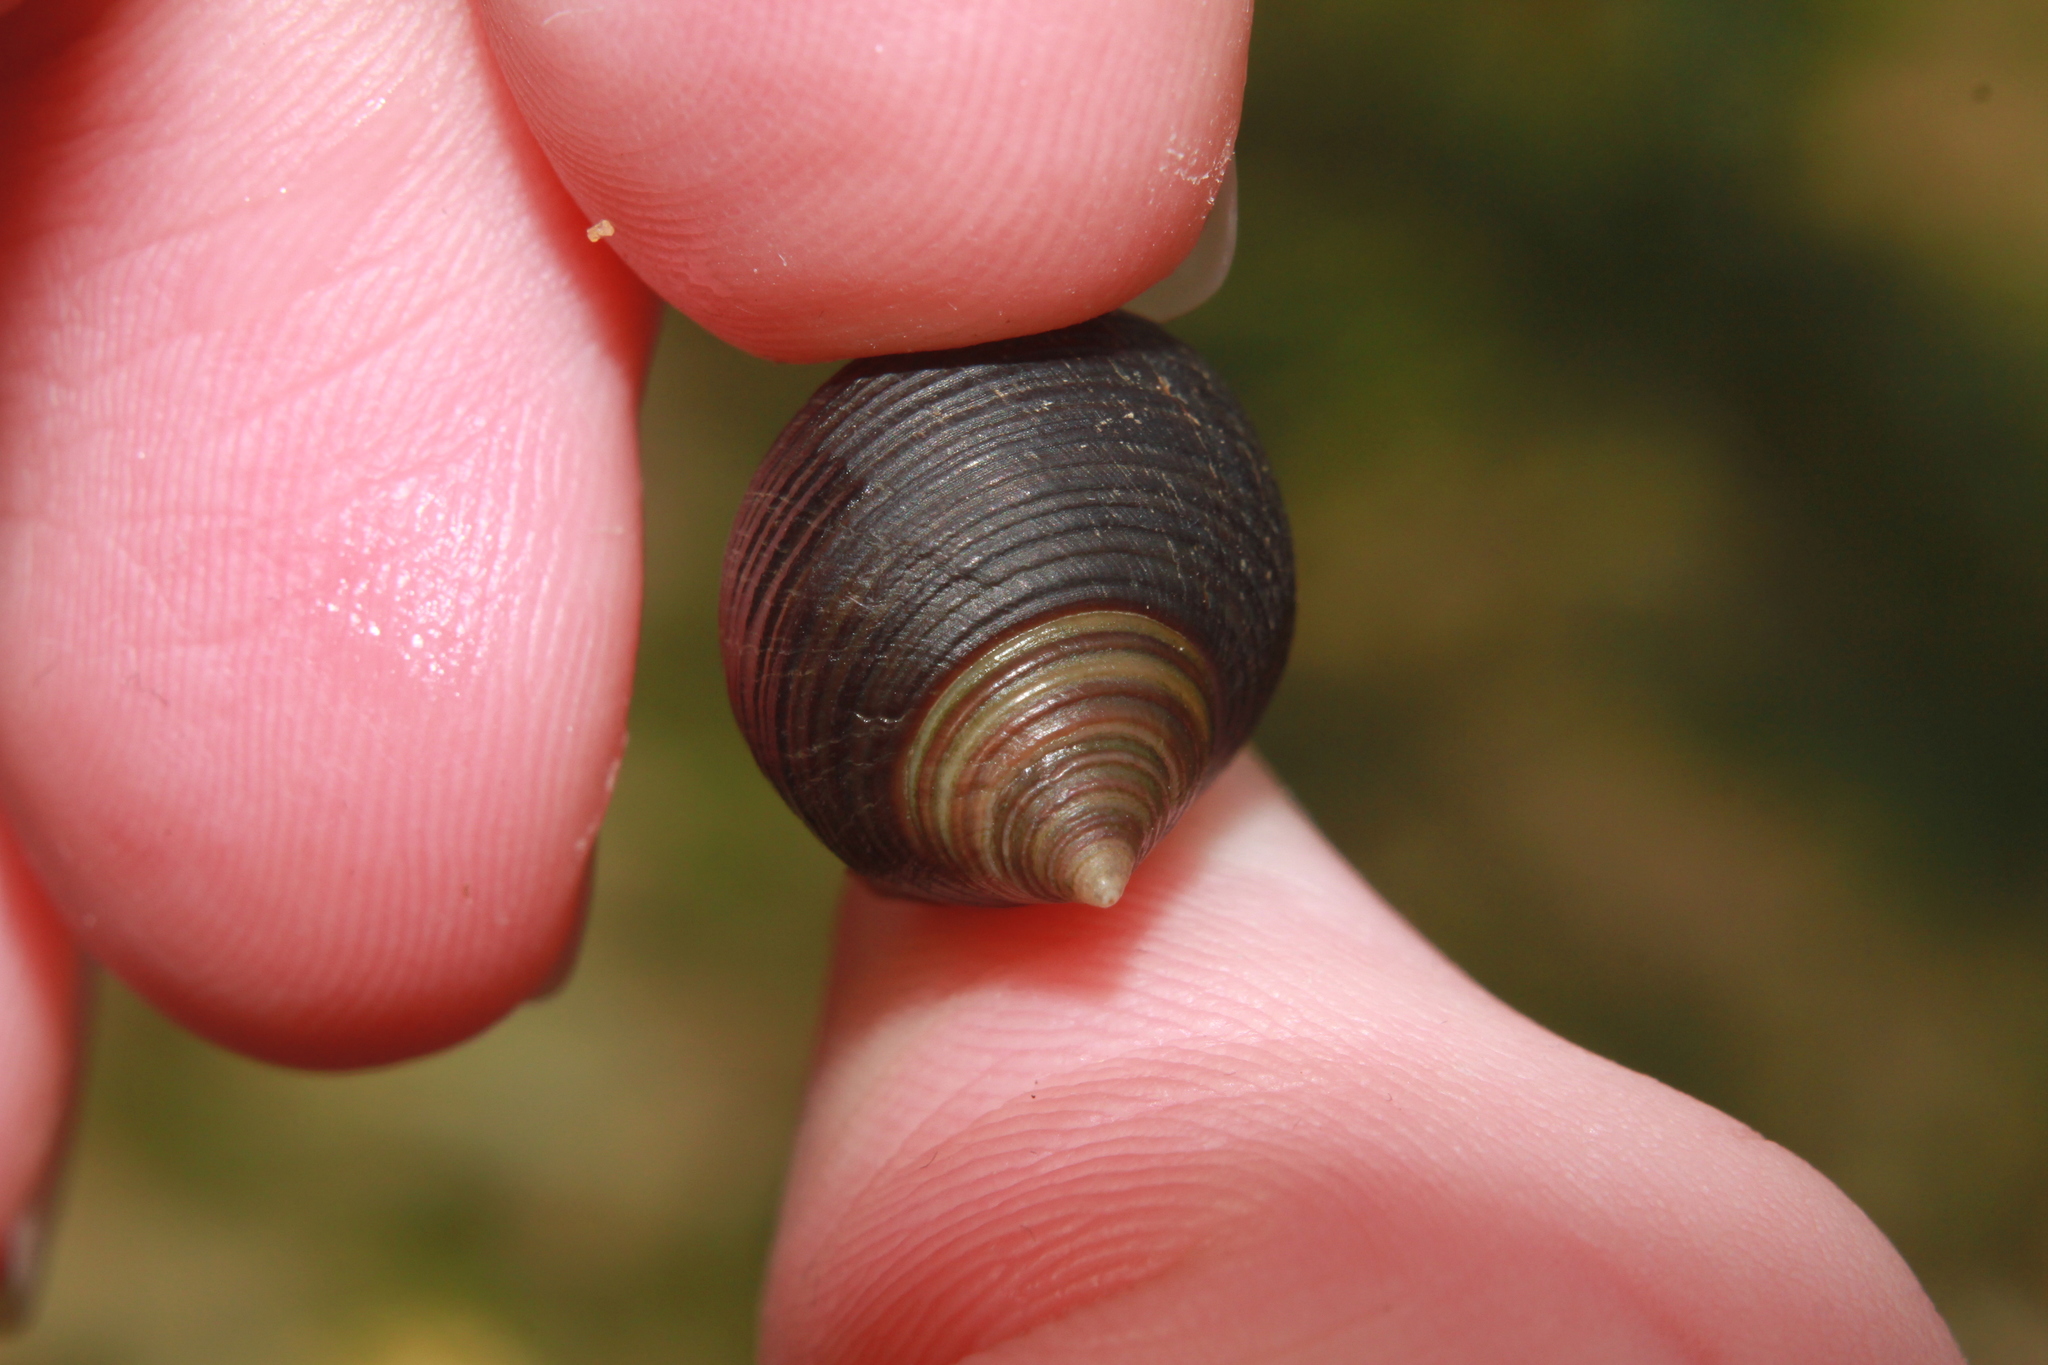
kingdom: Animalia
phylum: Mollusca
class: Gastropoda
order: Littorinimorpha
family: Littorinidae
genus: Littorina
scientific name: Littorina littorea
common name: Common periwinkle
